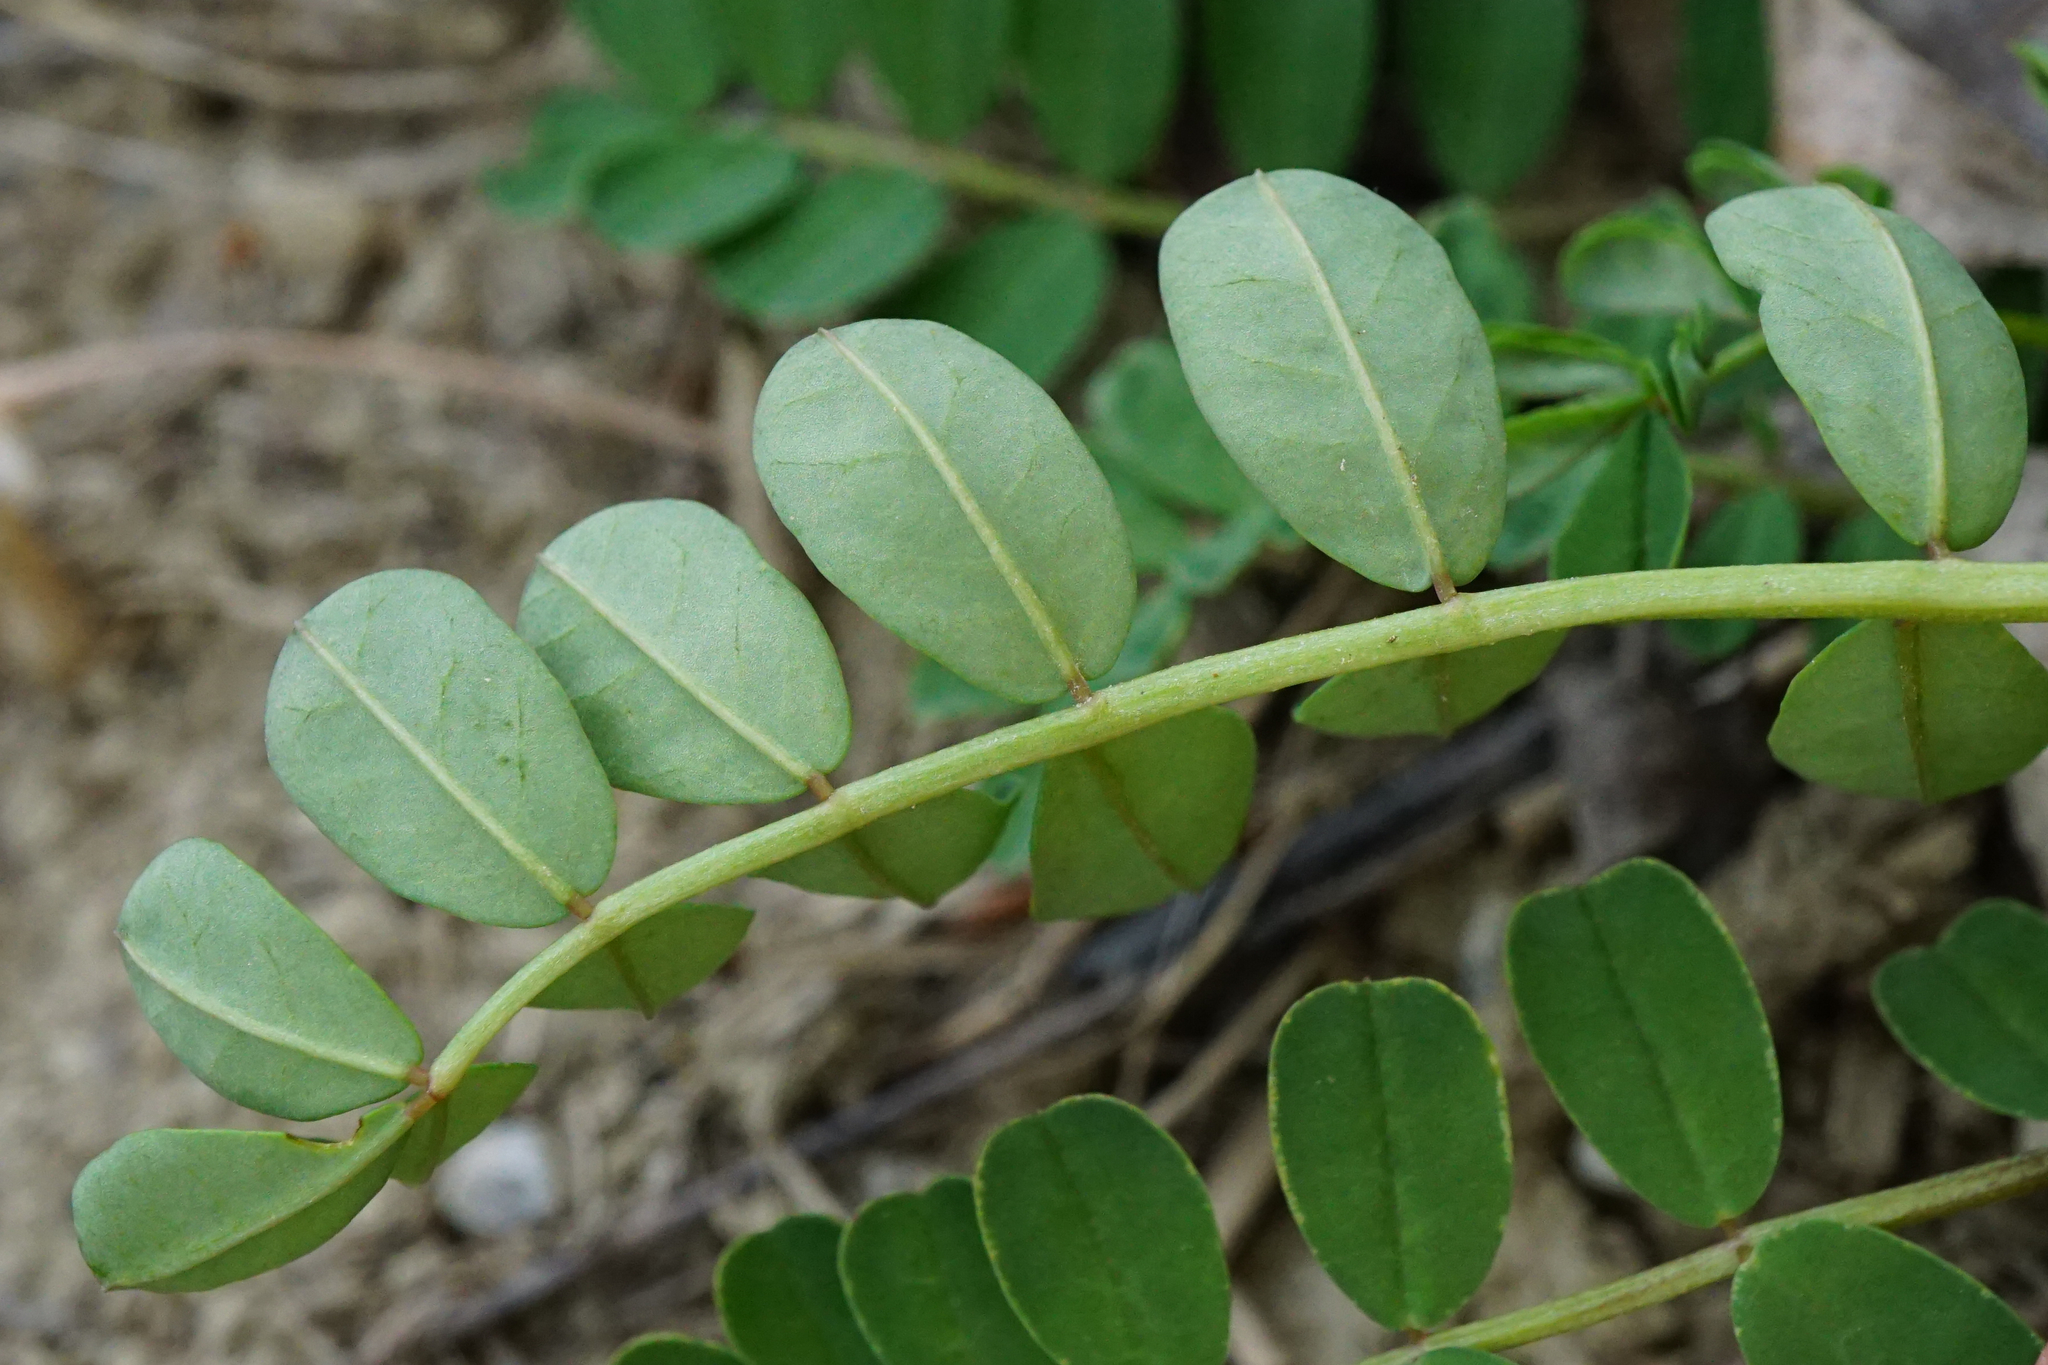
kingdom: Plantae
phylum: Tracheophyta
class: Magnoliopsida
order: Fabales
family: Fabaceae
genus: Coronilla
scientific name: Coronilla varia
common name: Crownvetch
